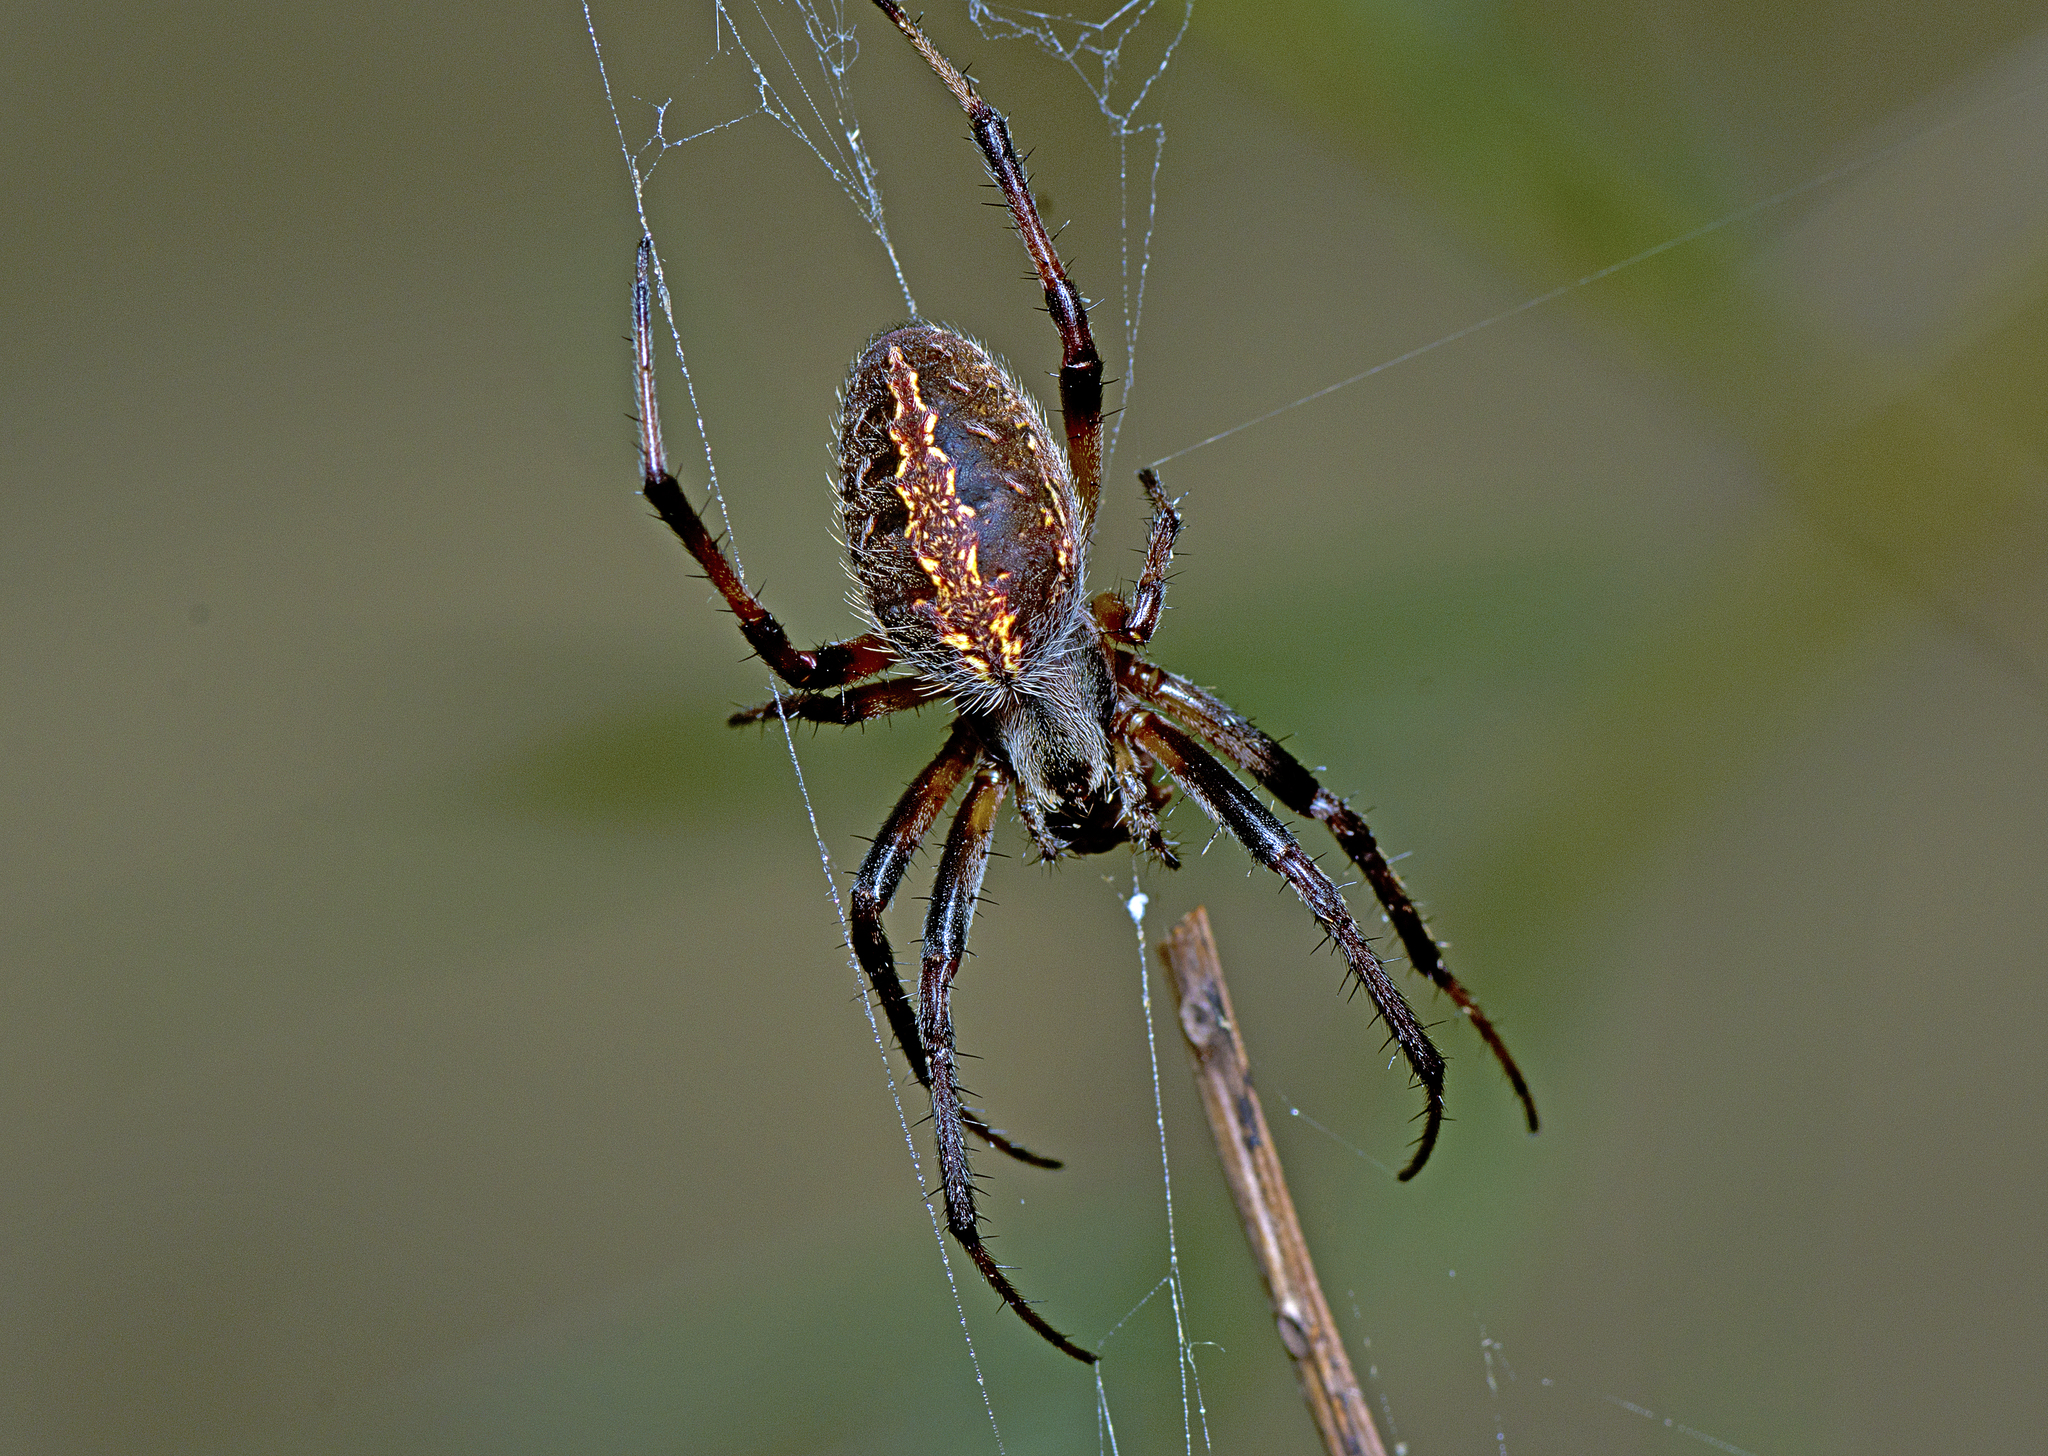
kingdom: Animalia
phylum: Arthropoda
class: Arachnida
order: Araneae
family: Araneidae
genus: Neoscona
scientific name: Neoscona theisi
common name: Spider
